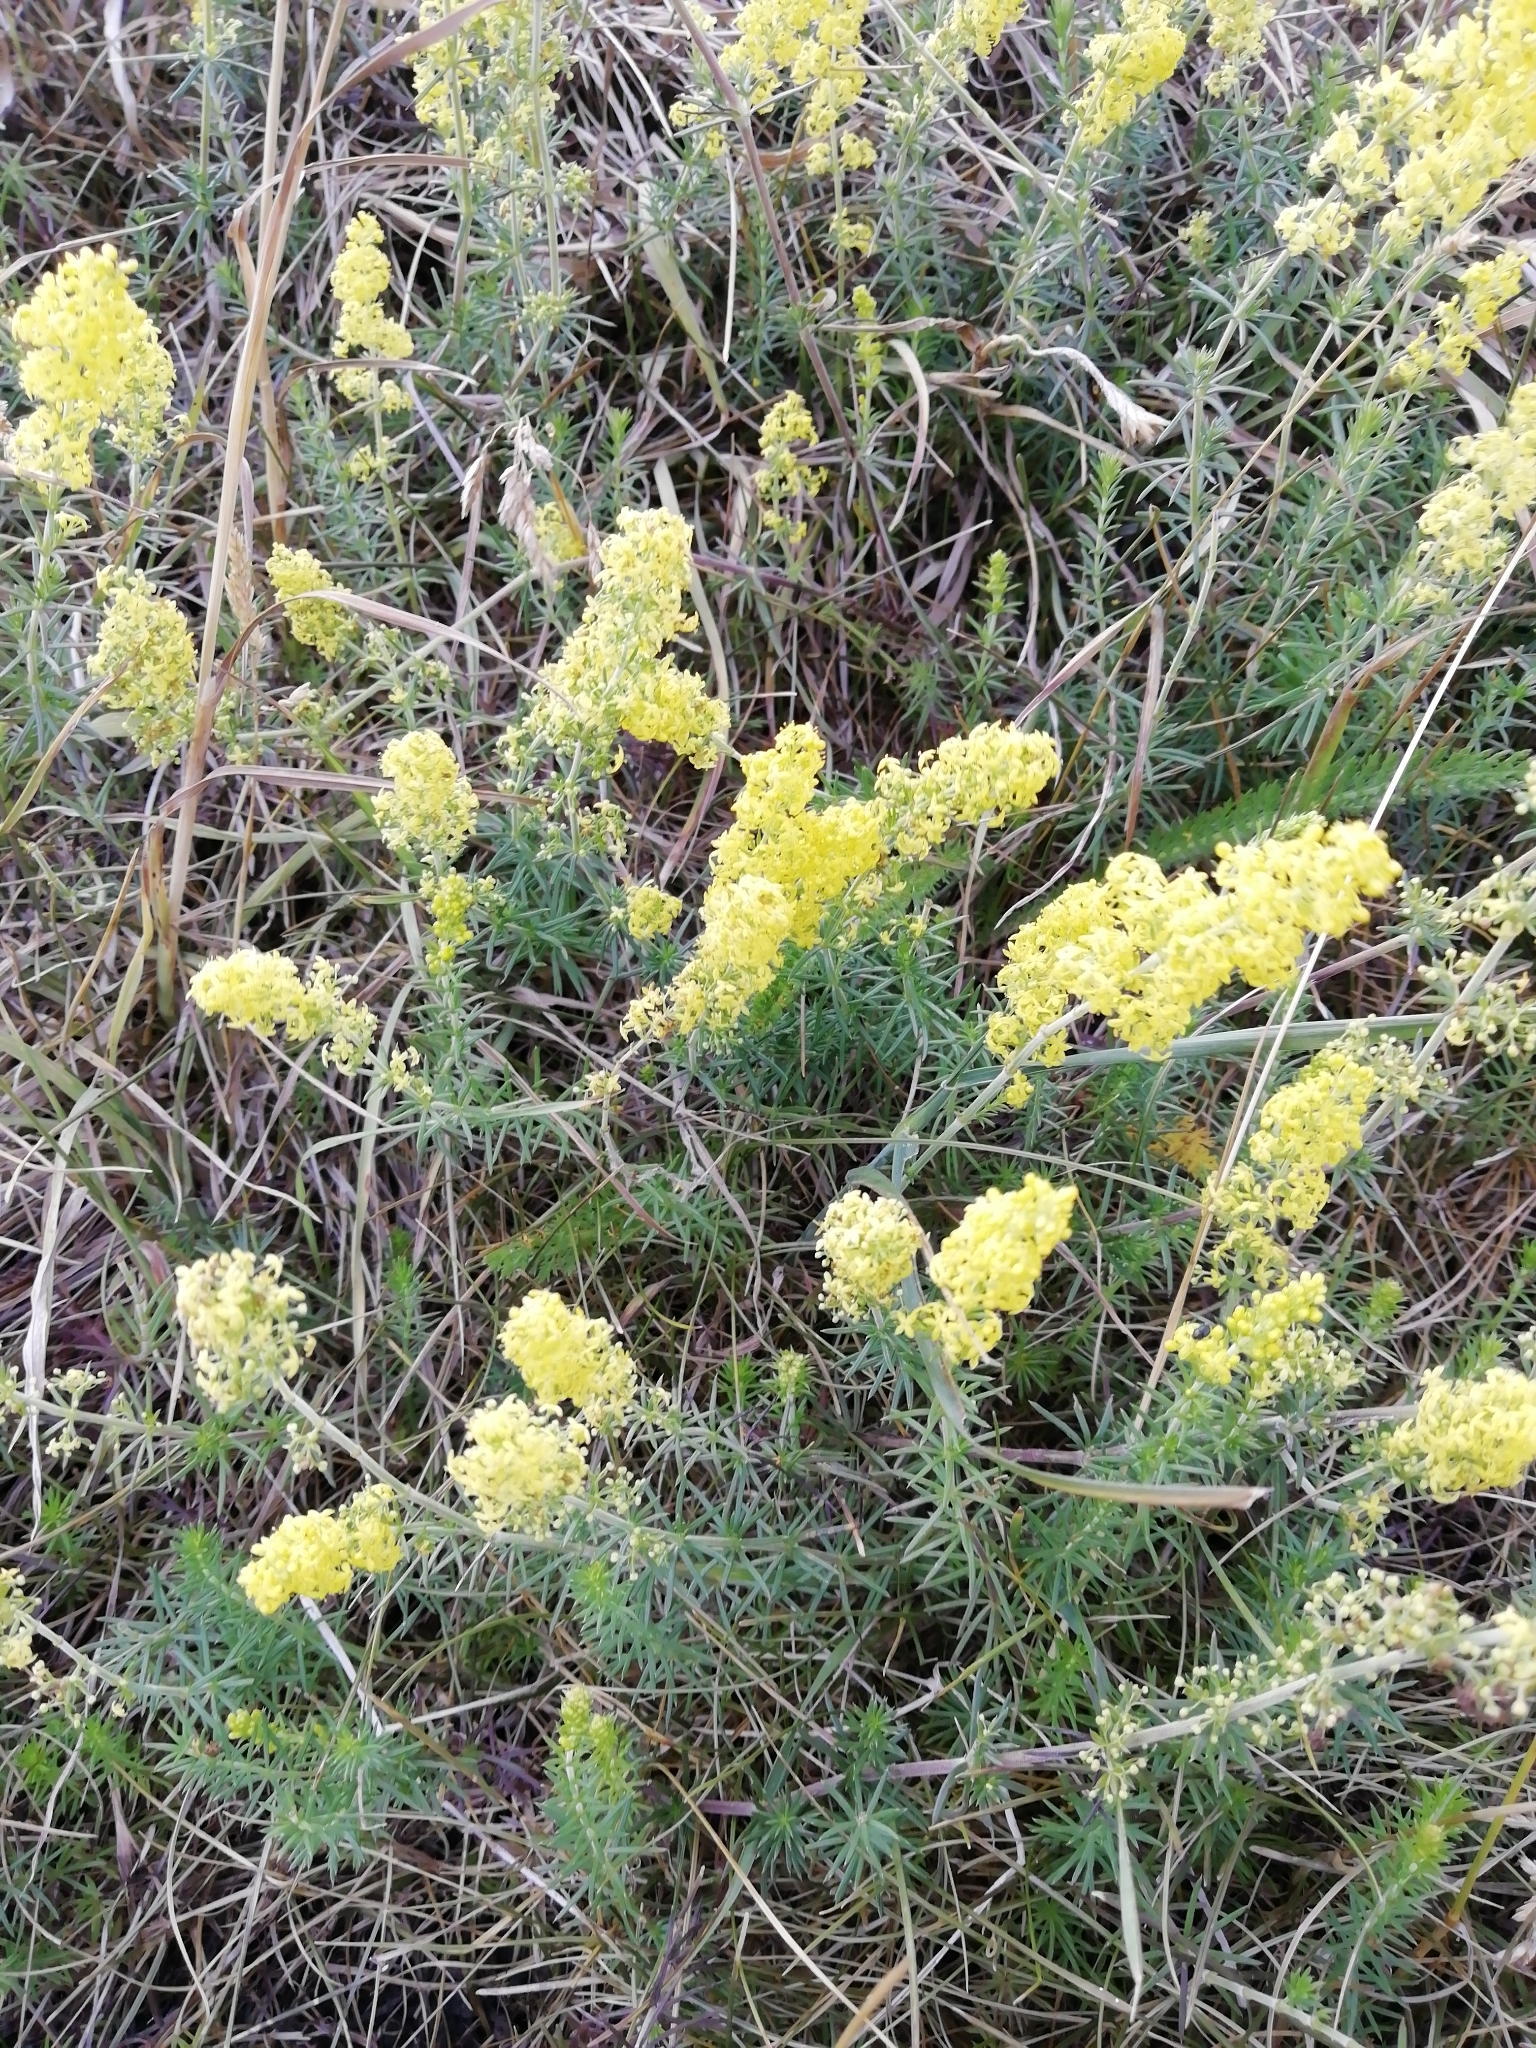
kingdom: Plantae
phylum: Tracheophyta
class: Magnoliopsida
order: Gentianales
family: Rubiaceae
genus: Galium
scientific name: Galium verum
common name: Lady's bedstraw
